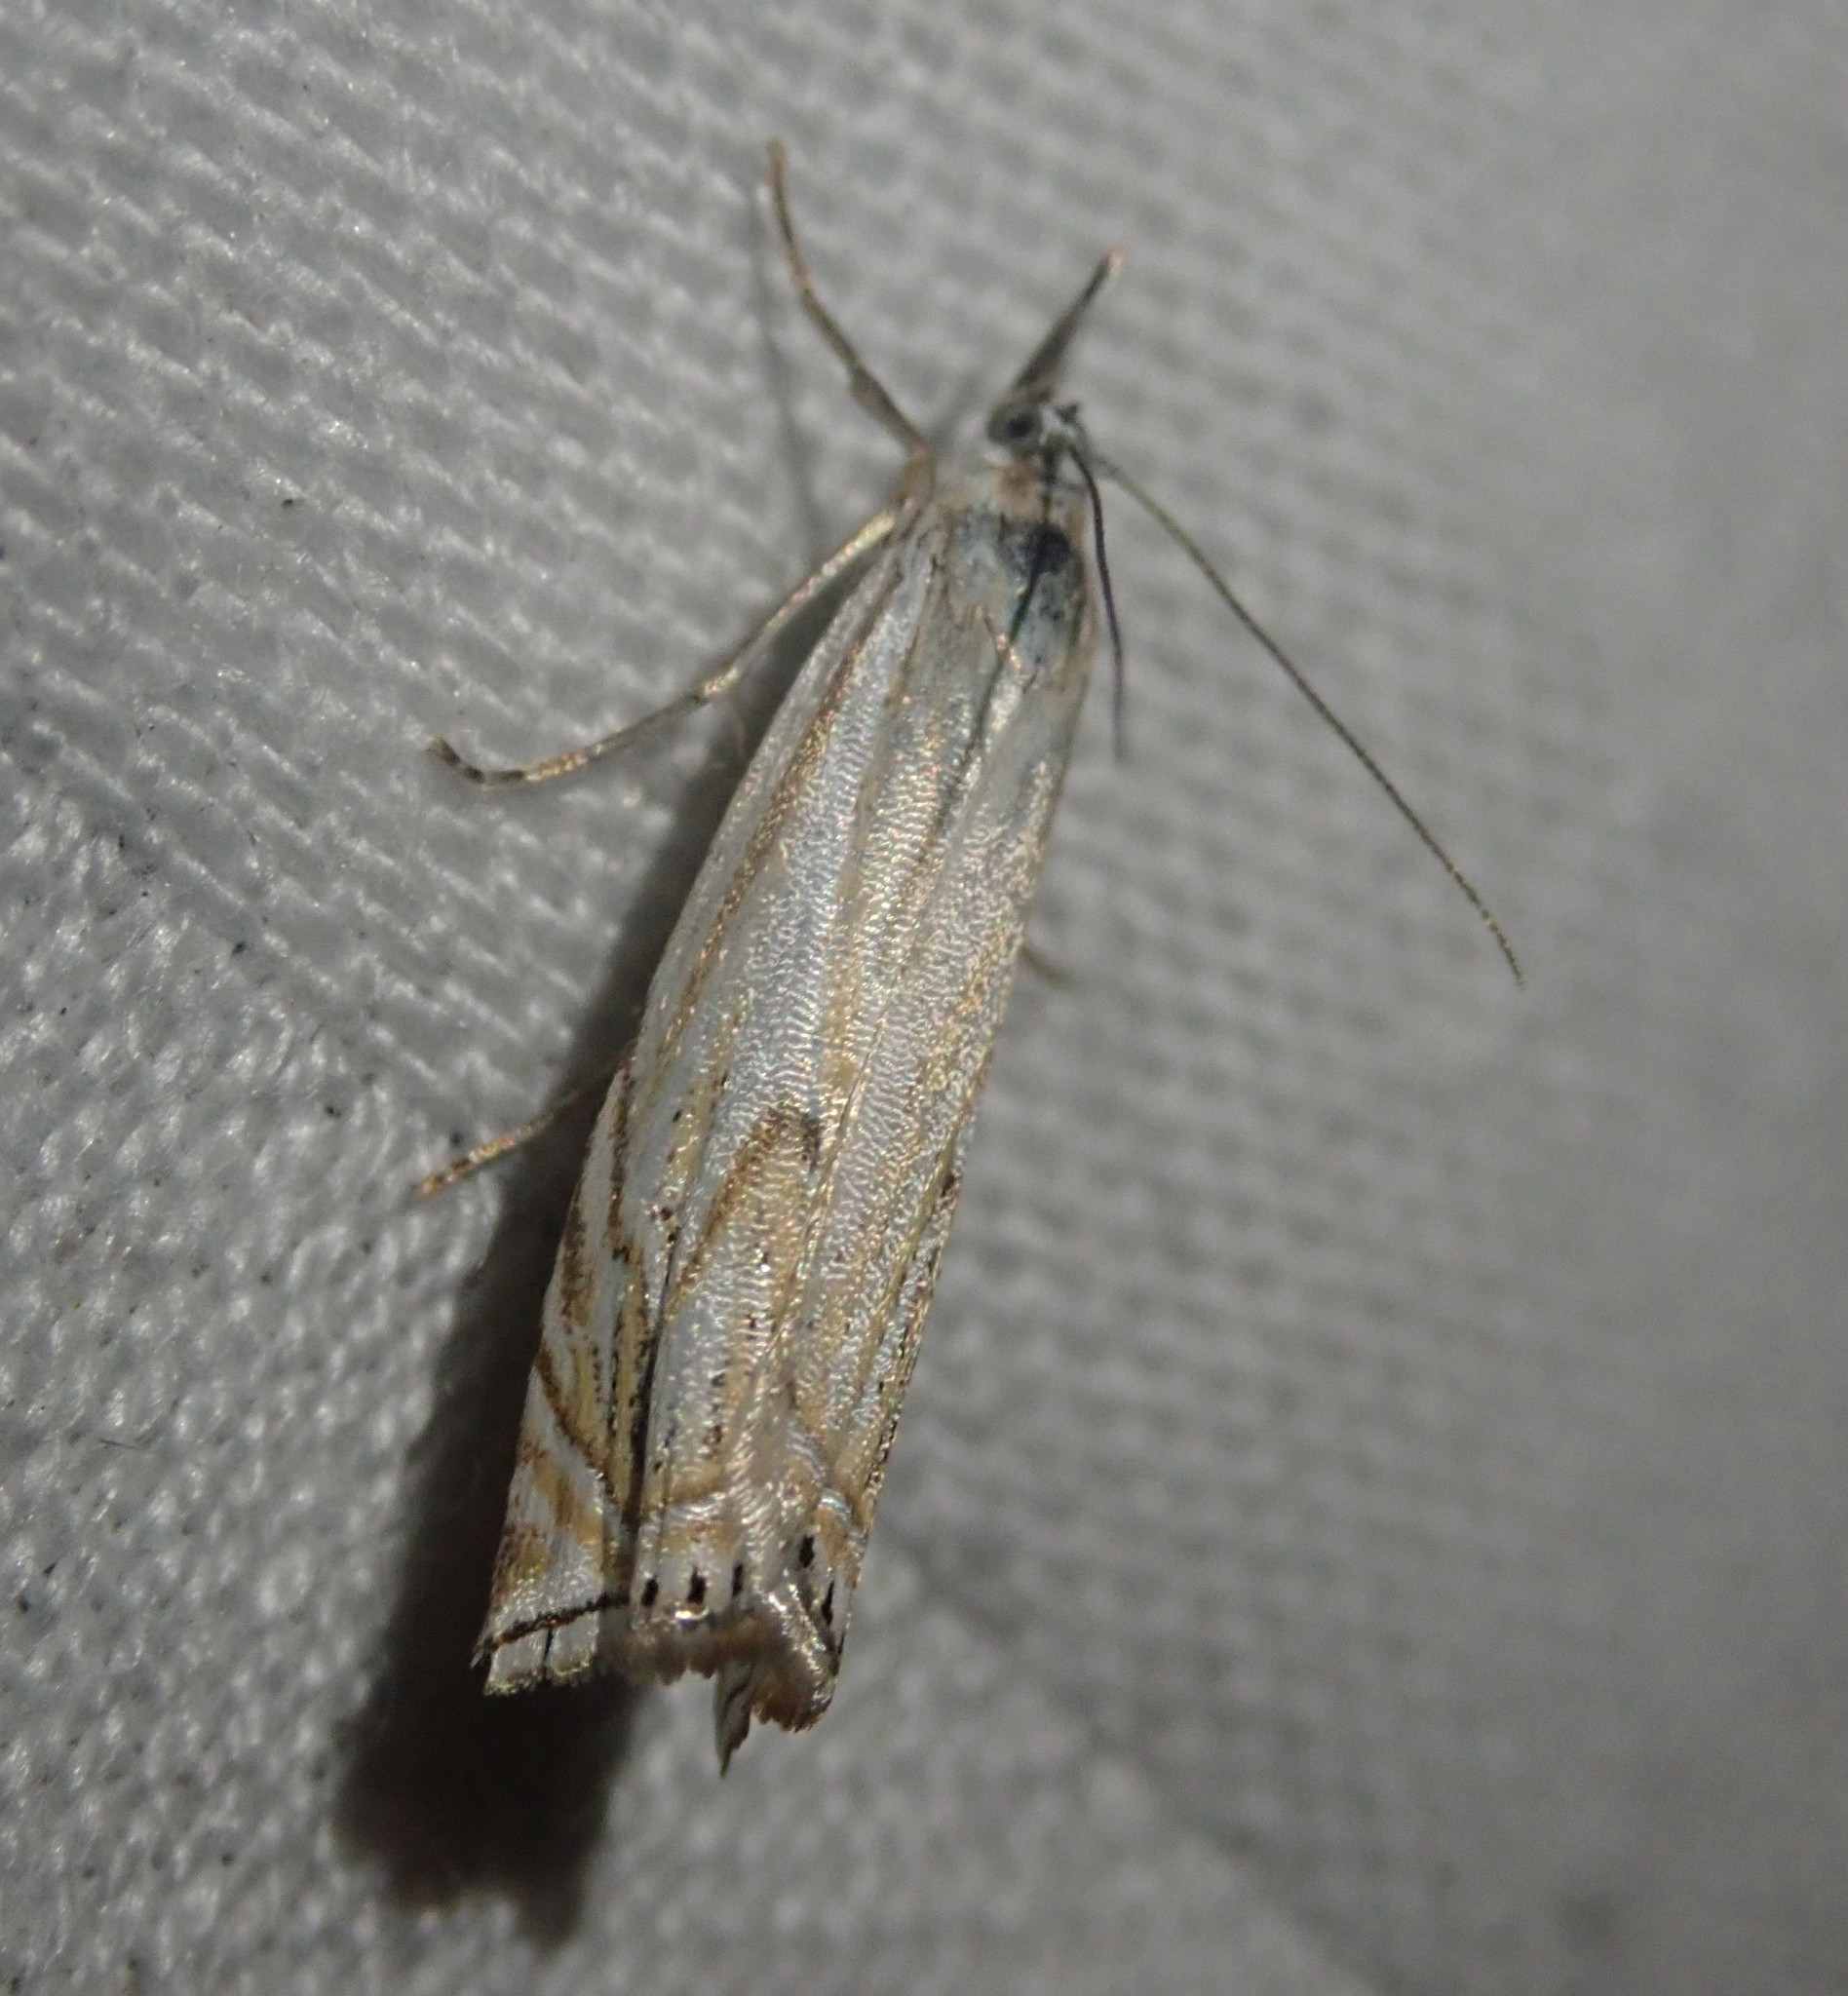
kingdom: Animalia
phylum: Arthropoda
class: Insecta
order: Lepidoptera
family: Crambidae
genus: Crambus
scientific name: Crambus nemorella
